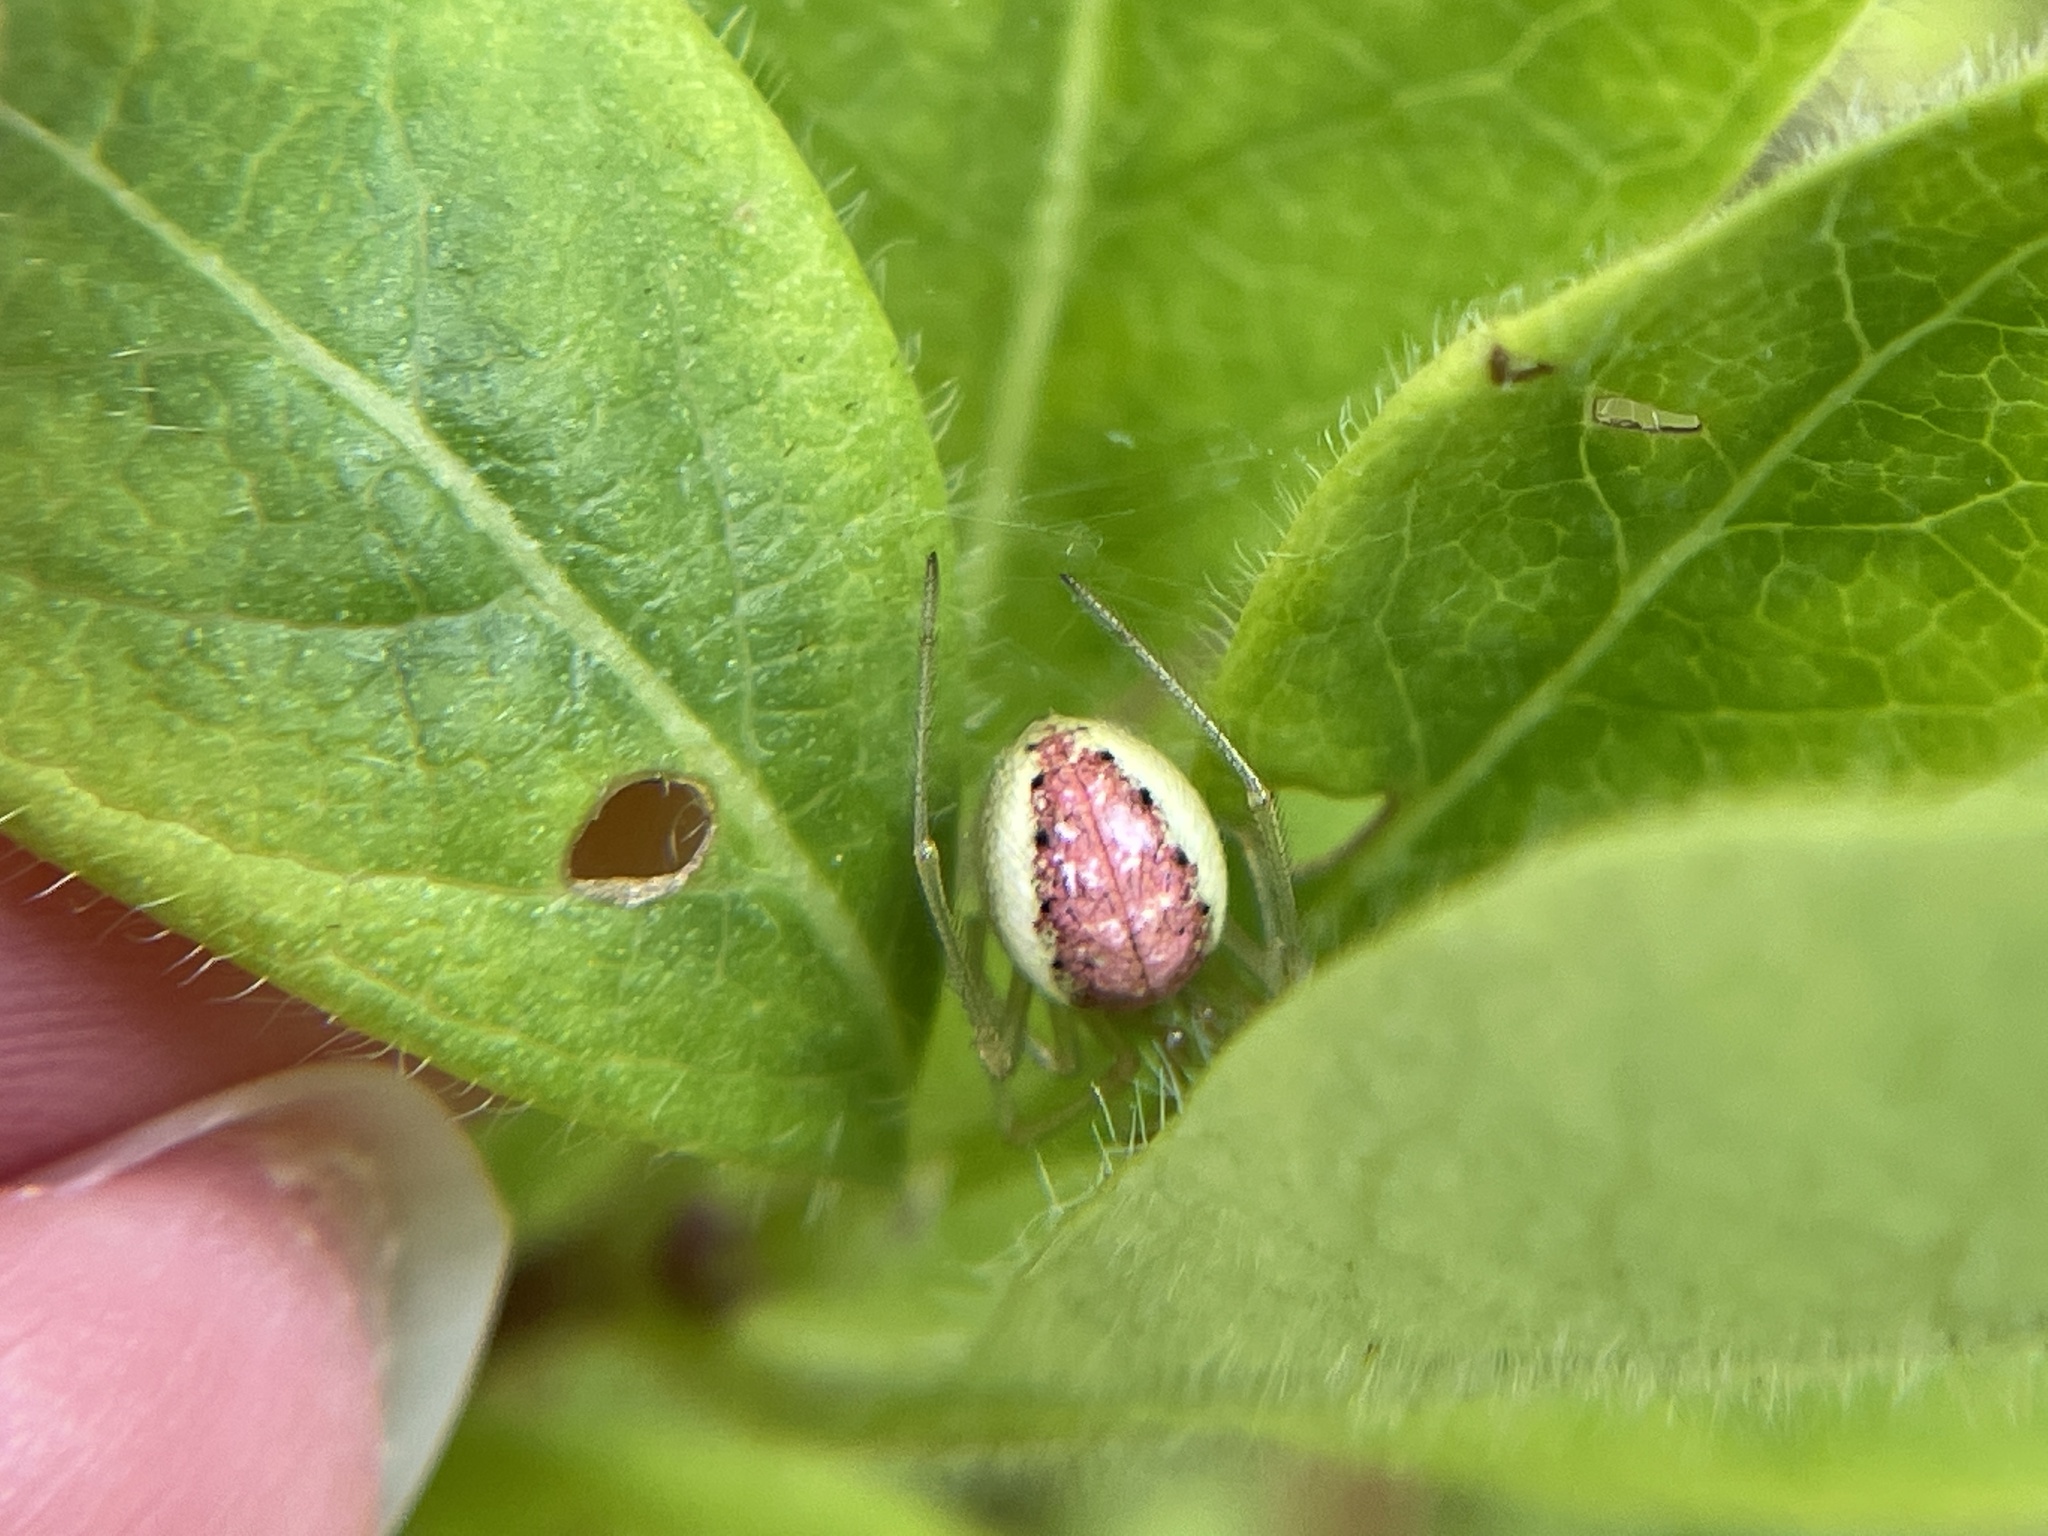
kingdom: Animalia
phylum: Arthropoda
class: Arachnida
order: Araneae
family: Theridiidae
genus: Enoplognatha
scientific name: Enoplognatha ovata
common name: Common candy-striped spider
